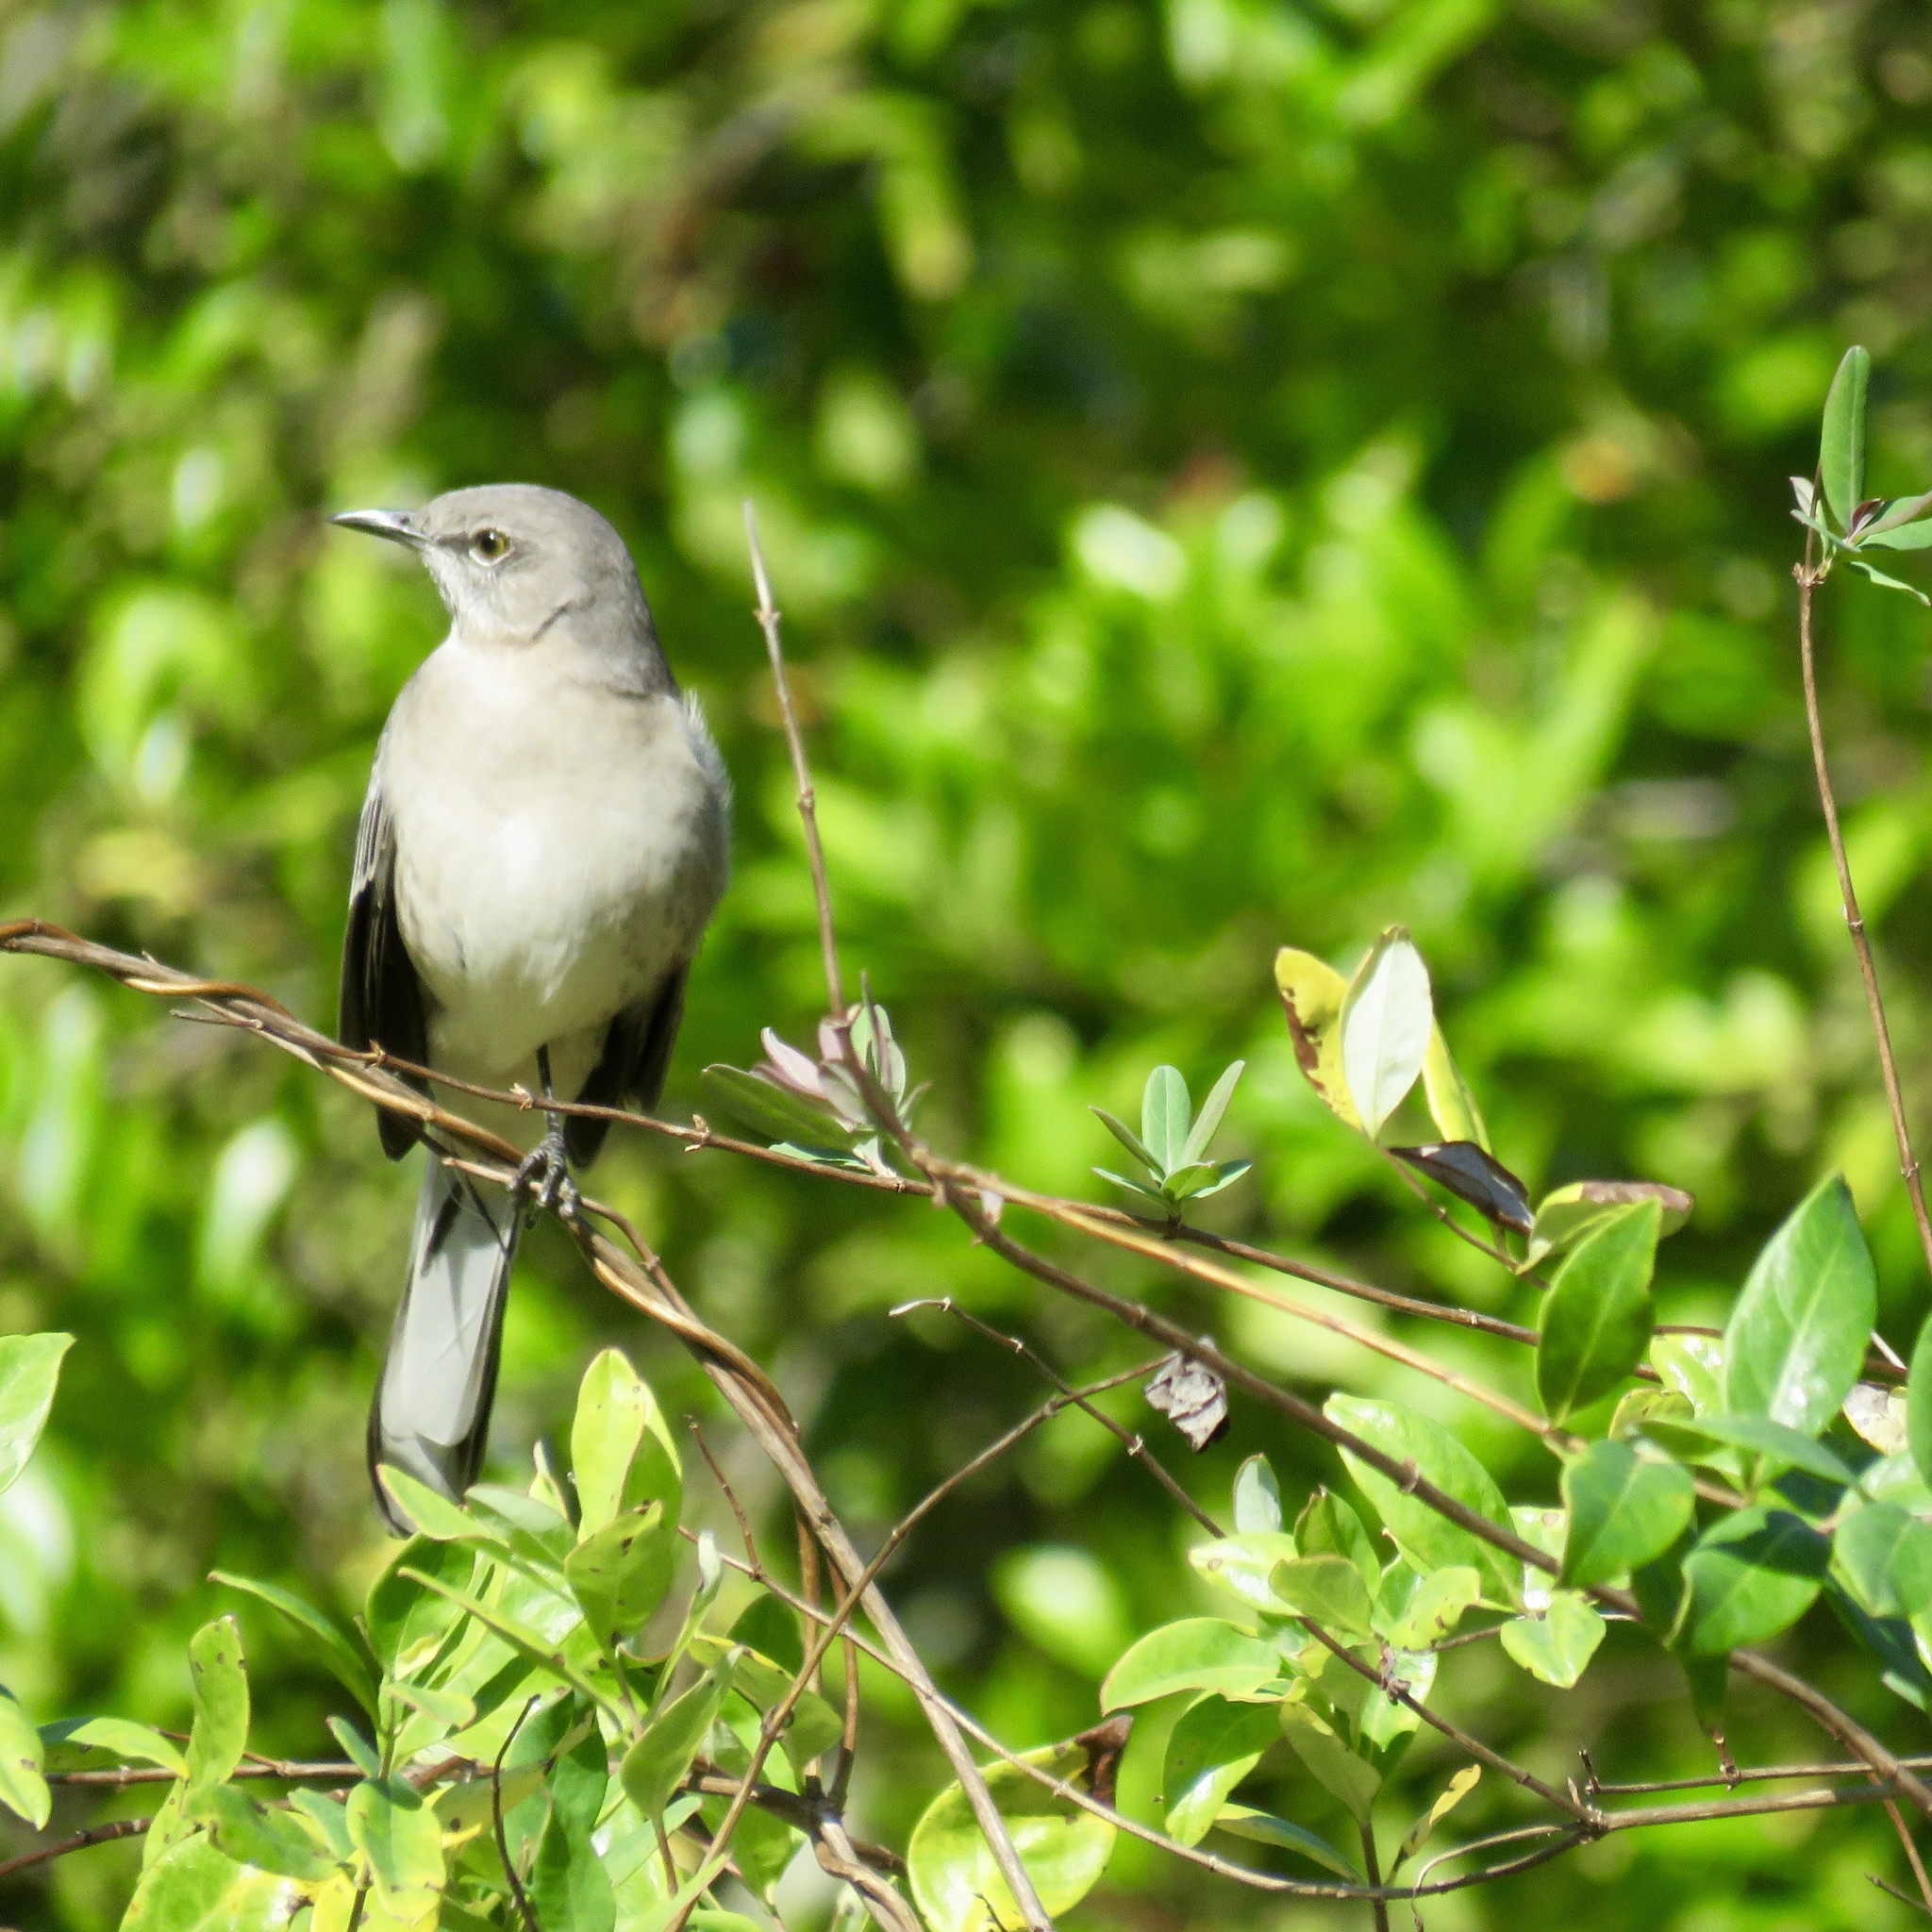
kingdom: Animalia
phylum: Chordata
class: Aves
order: Passeriformes
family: Mimidae
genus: Mimus
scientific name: Mimus polyglottos
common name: Northern mockingbird
